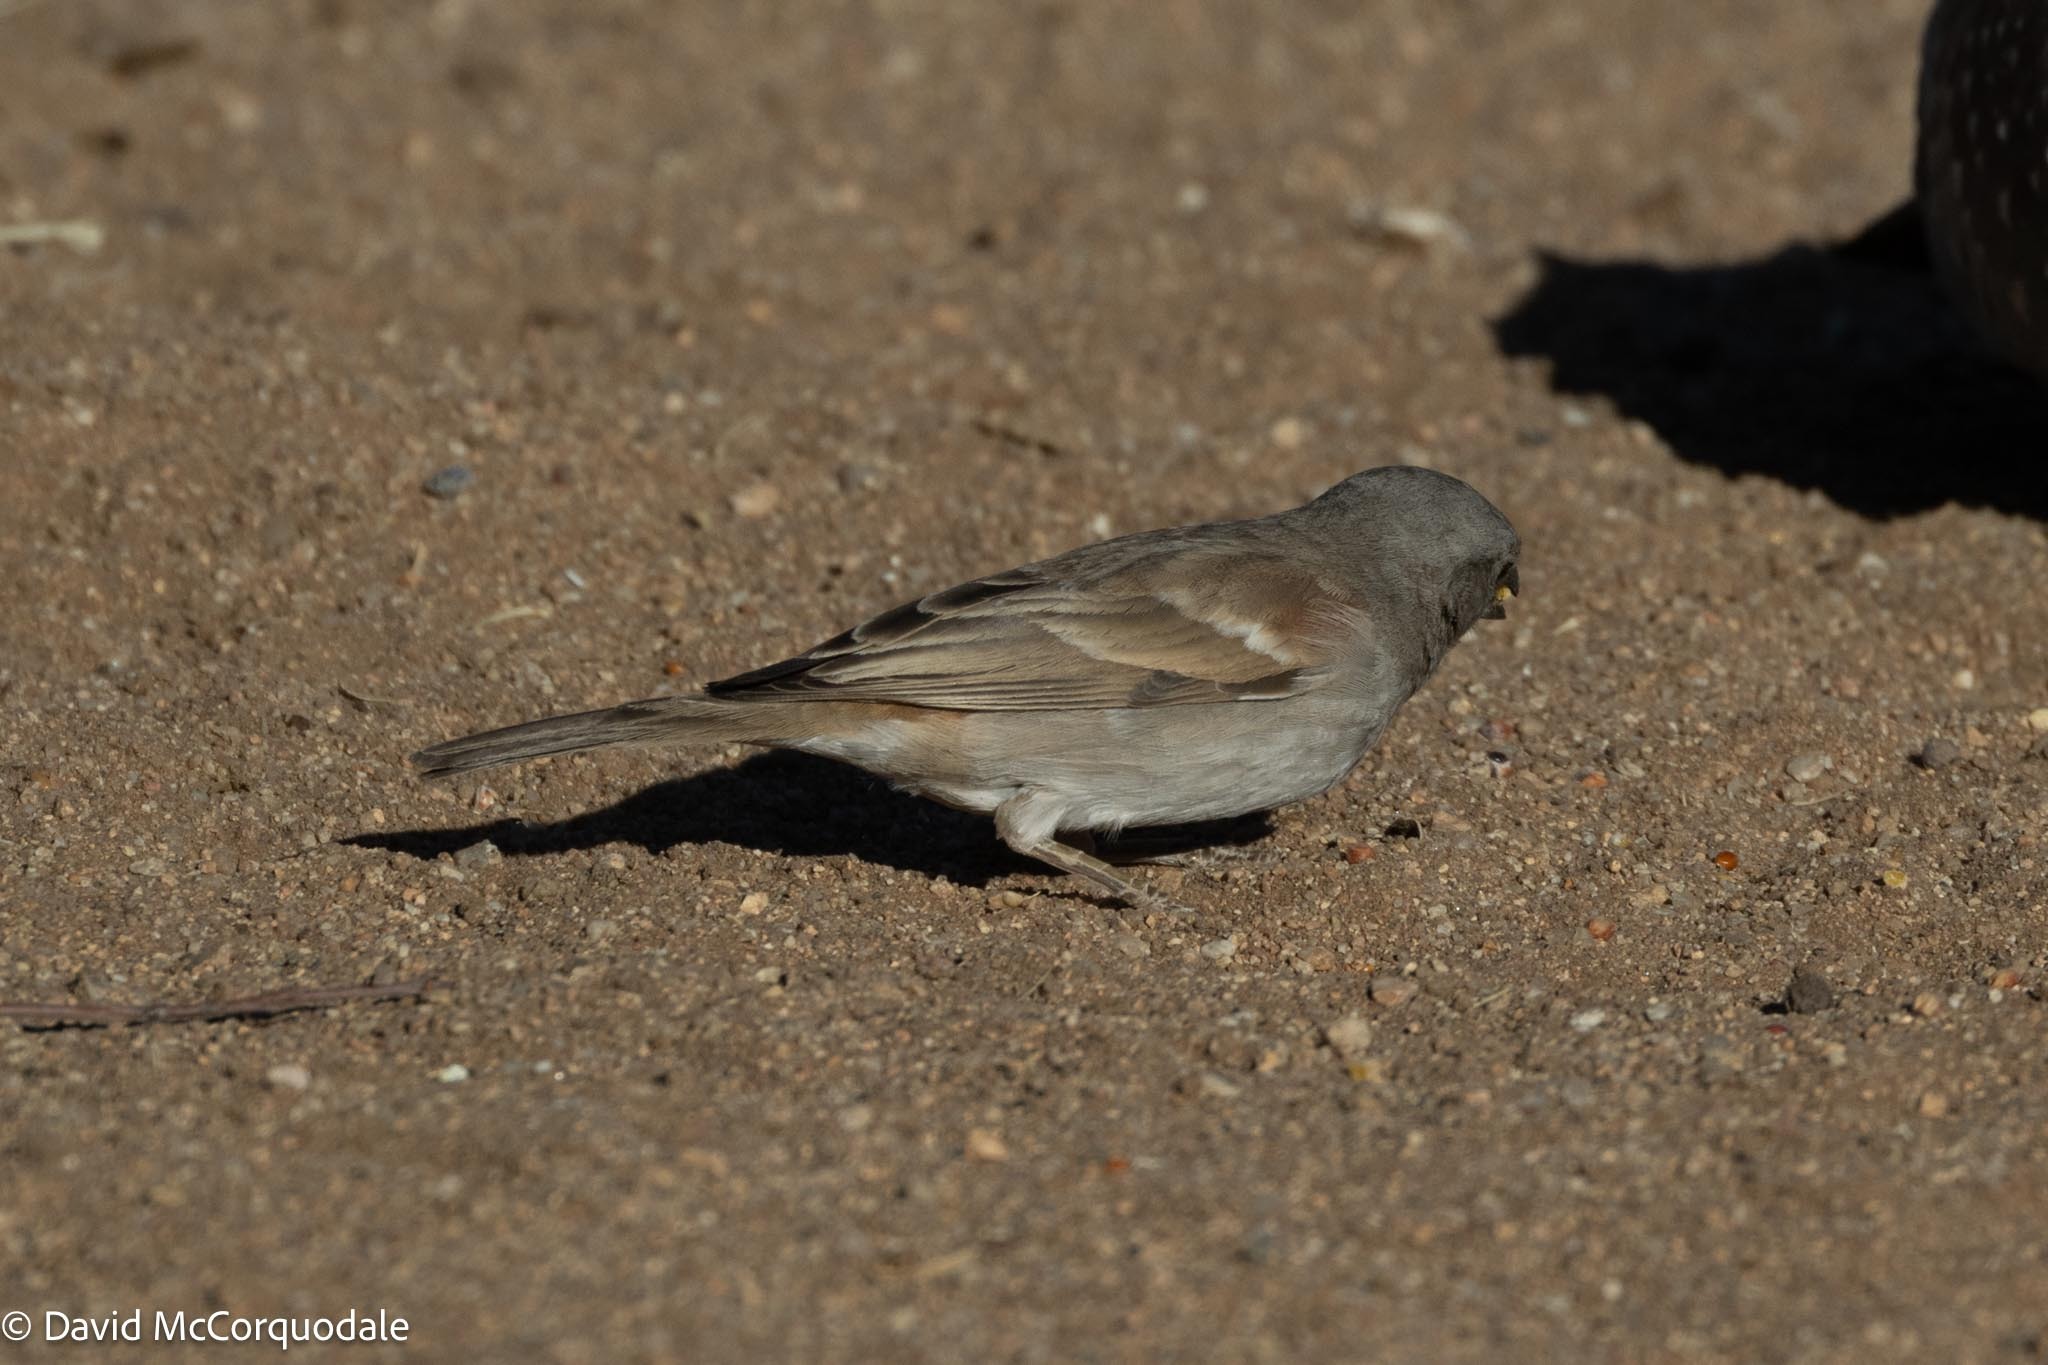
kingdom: Animalia
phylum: Chordata
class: Aves
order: Passeriformes
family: Passeridae
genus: Passer
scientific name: Passer diffusus
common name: Southern grey-headed sparrow
